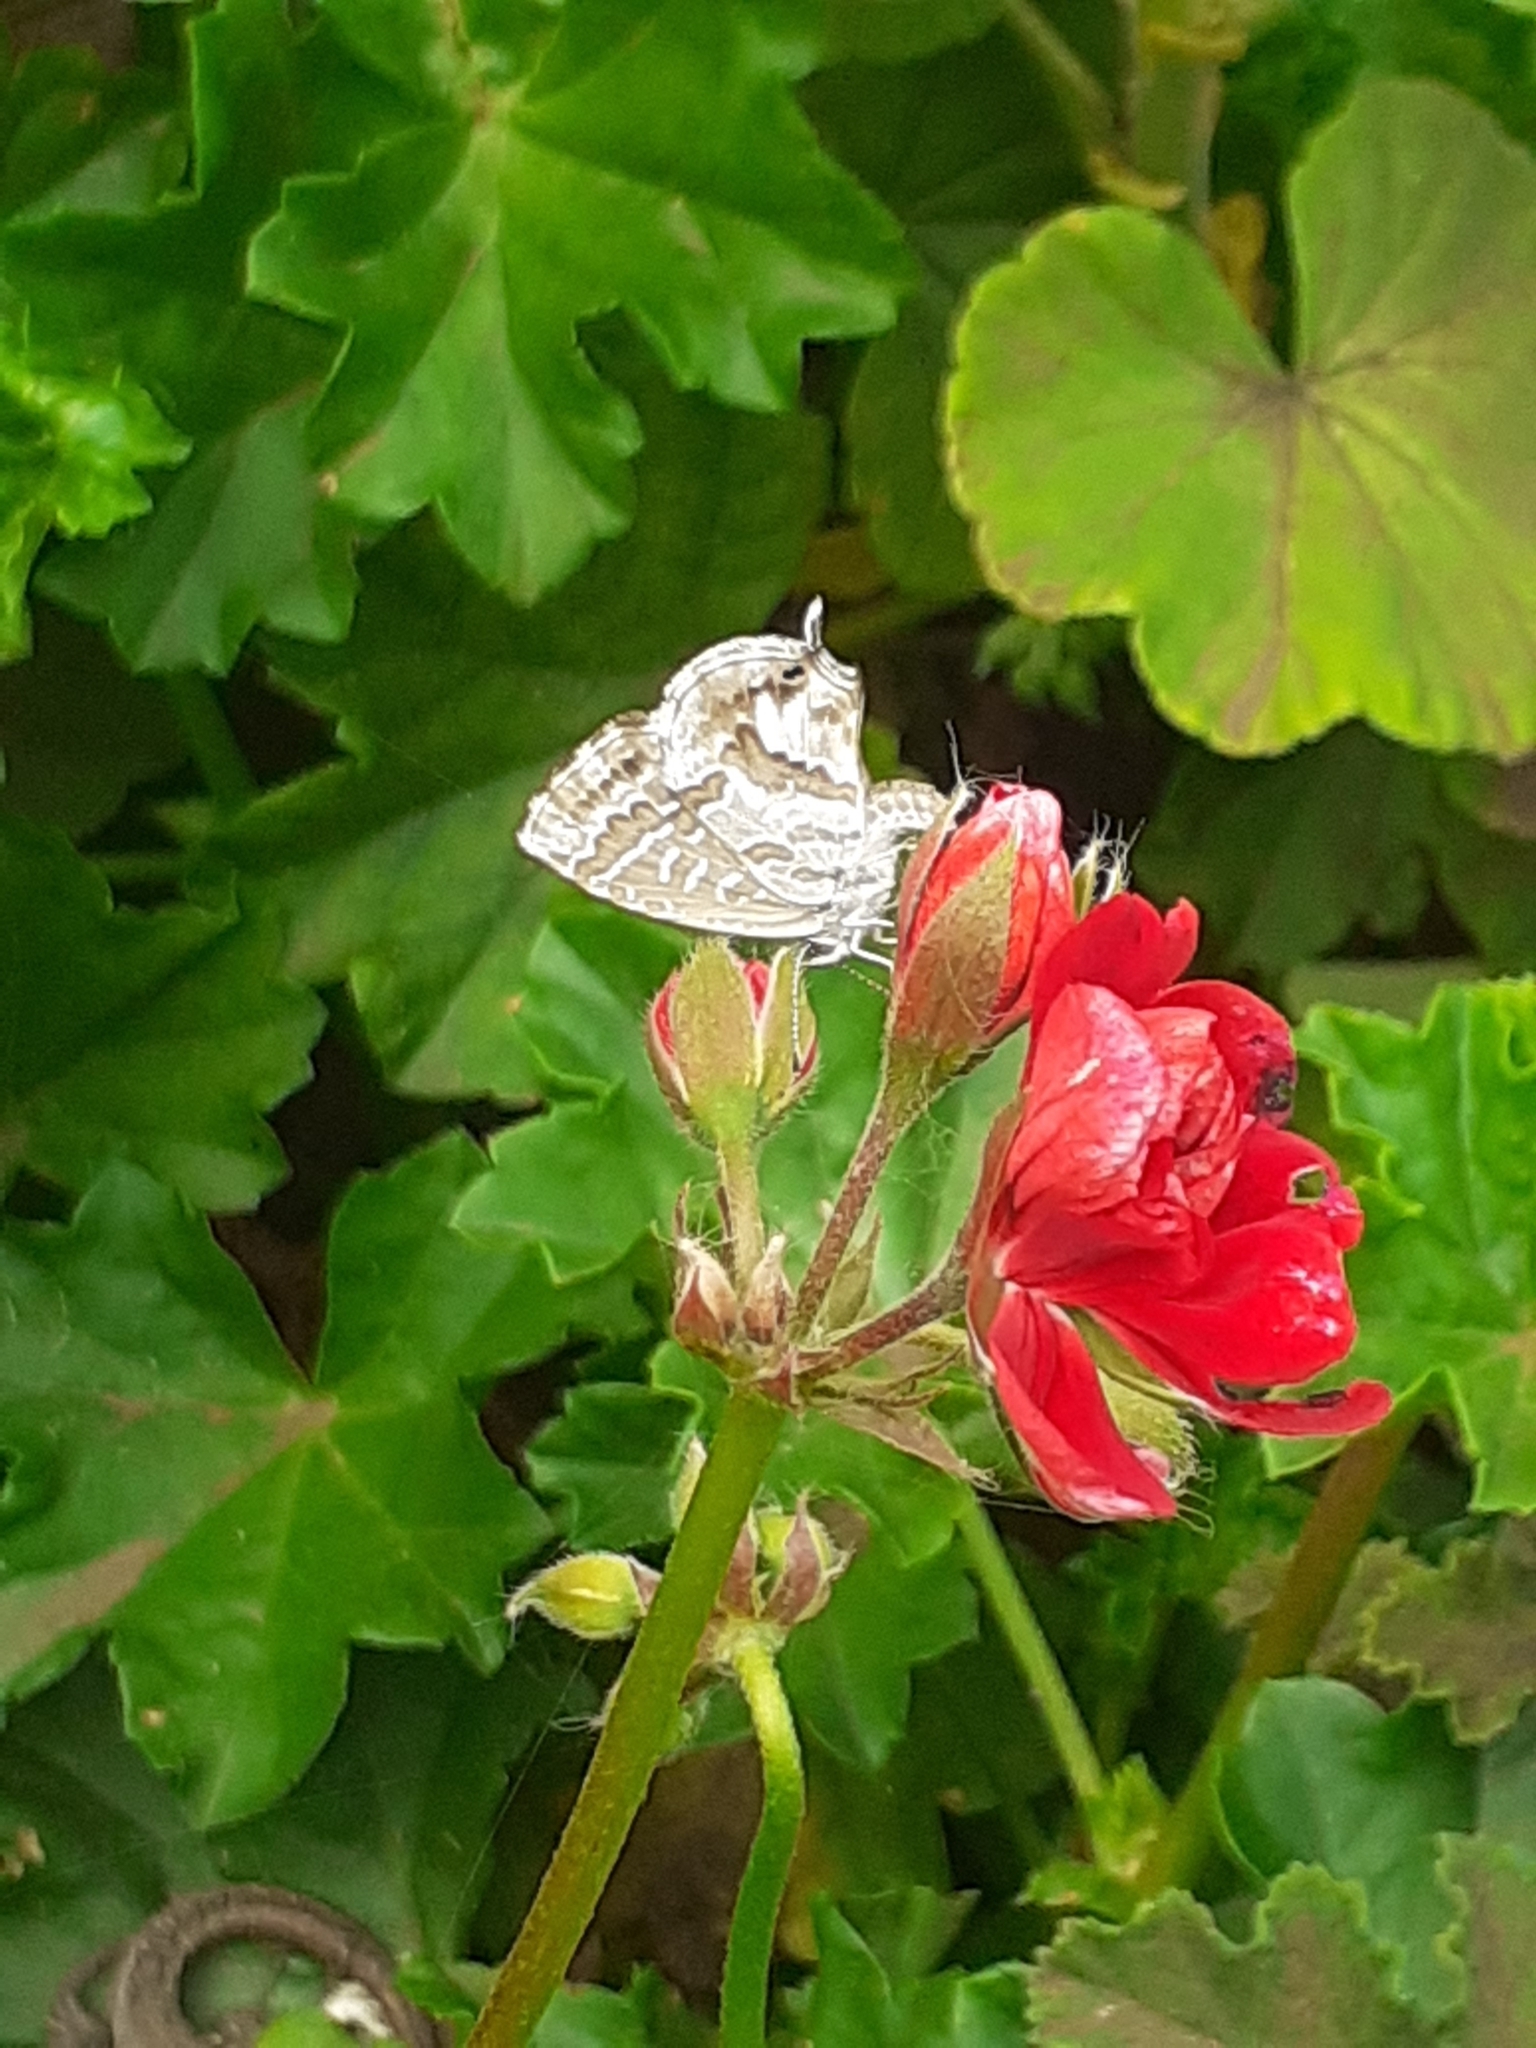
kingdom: Animalia
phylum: Arthropoda
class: Insecta
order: Lepidoptera
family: Lycaenidae
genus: Cacyreus
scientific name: Cacyreus marshalli
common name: Geranium bronze
